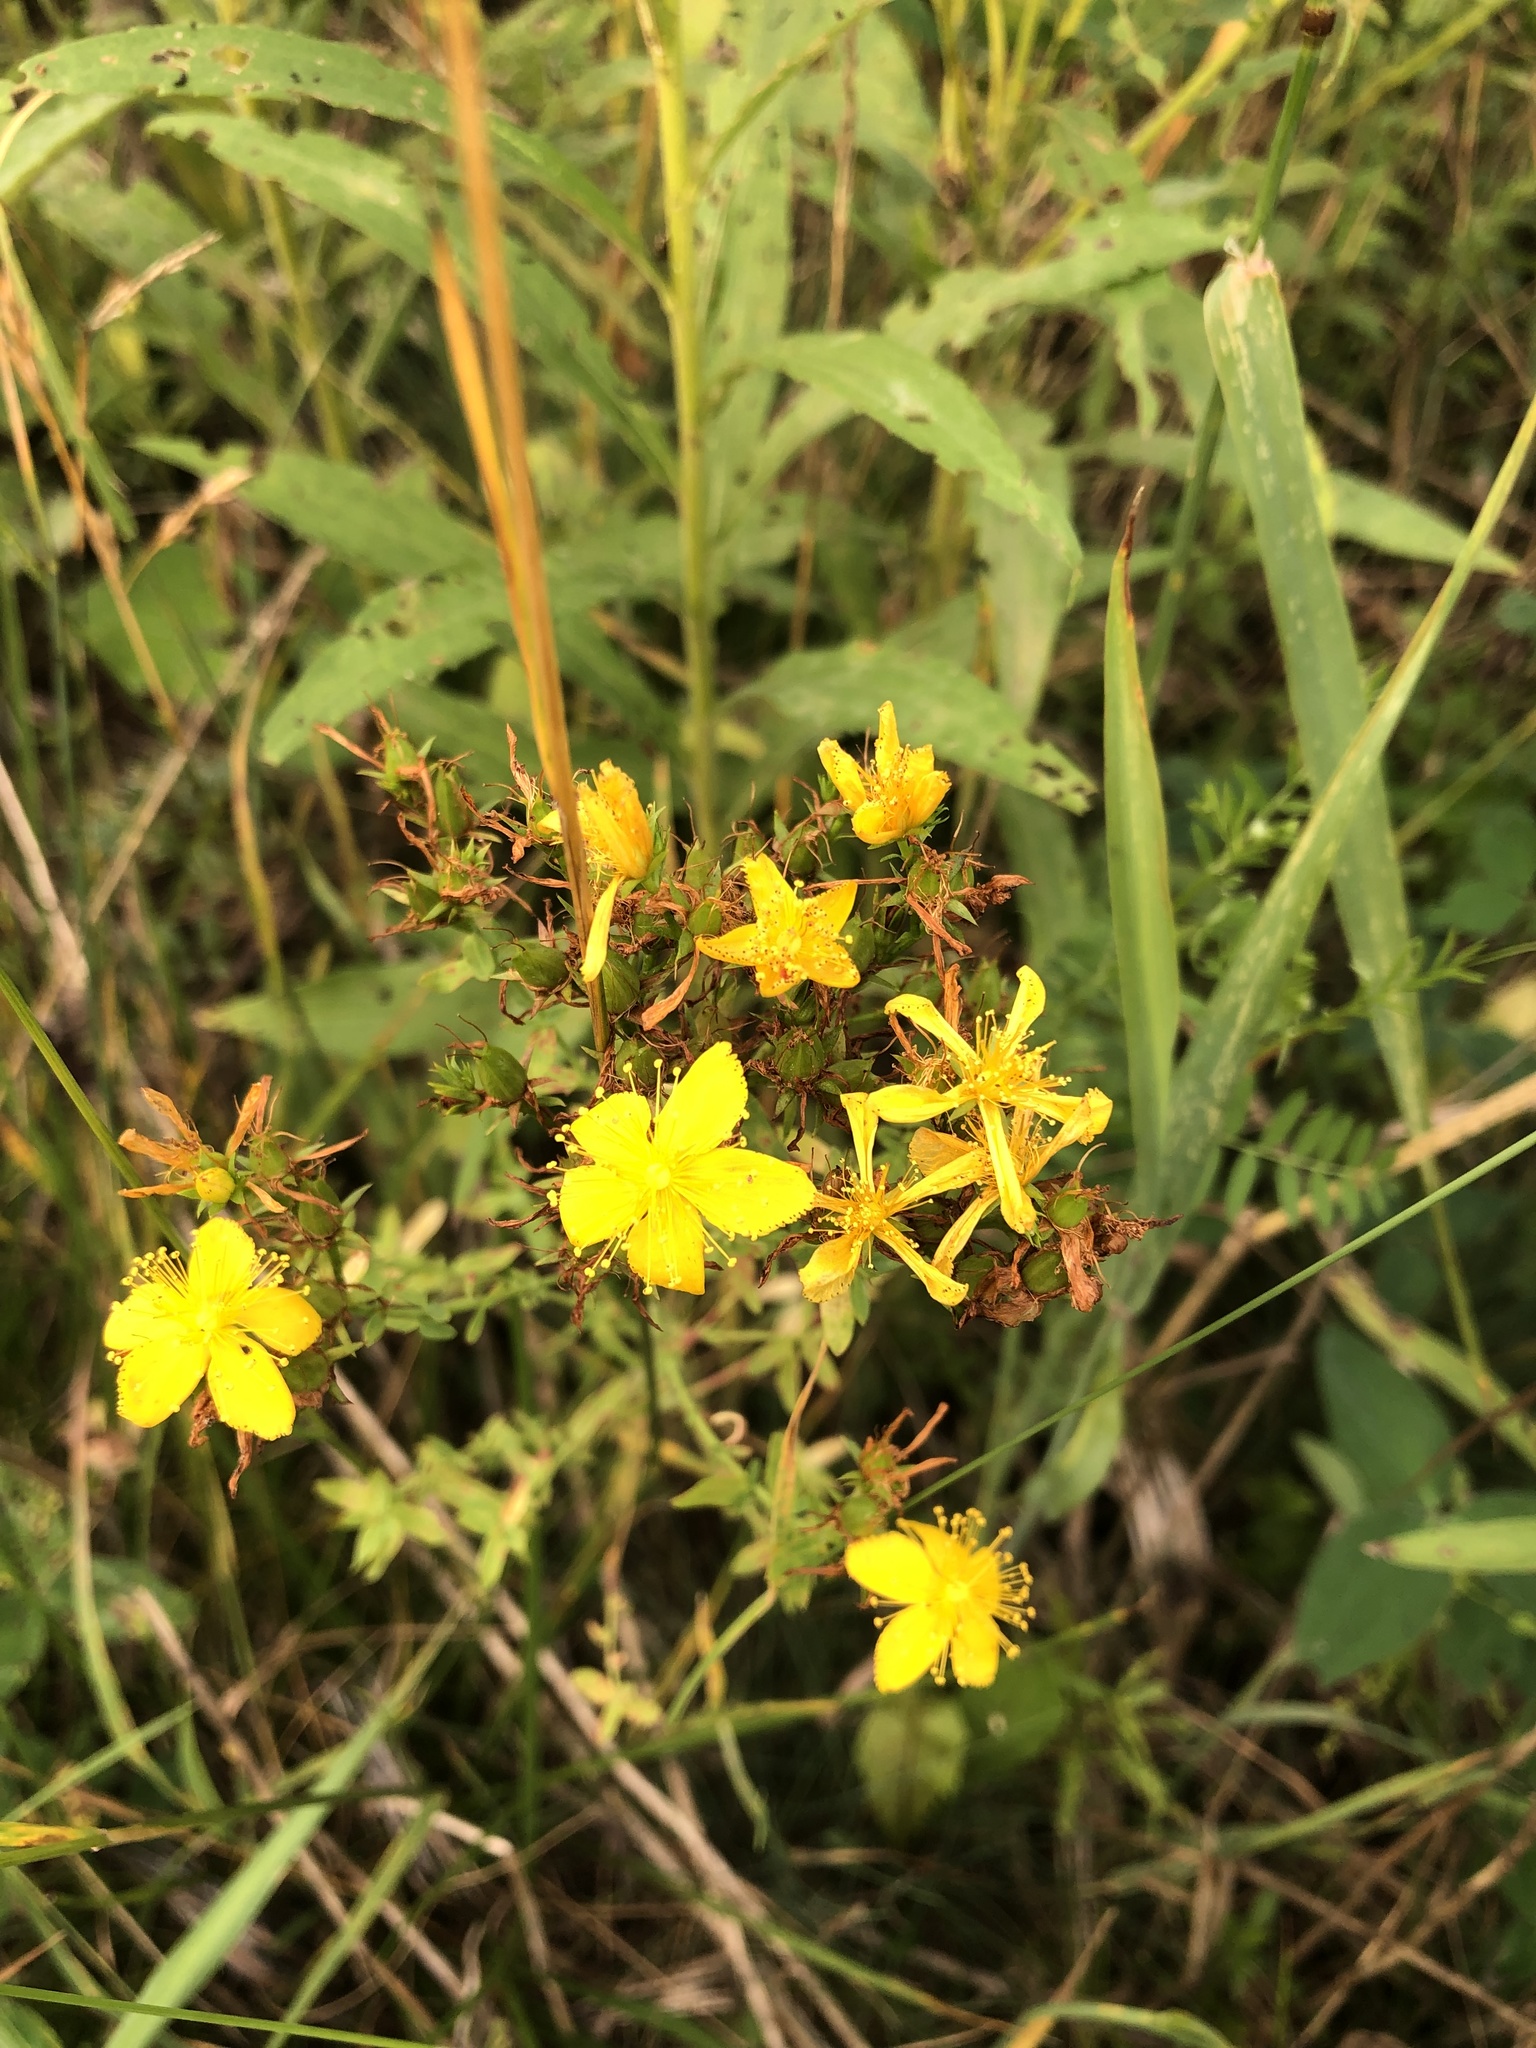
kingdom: Plantae
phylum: Tracheophyta
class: Magnoliopsida
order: Malpighiales
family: Hypericaceae
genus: Hypericum
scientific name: Hypericum perforatum
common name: Common st. johnswort
